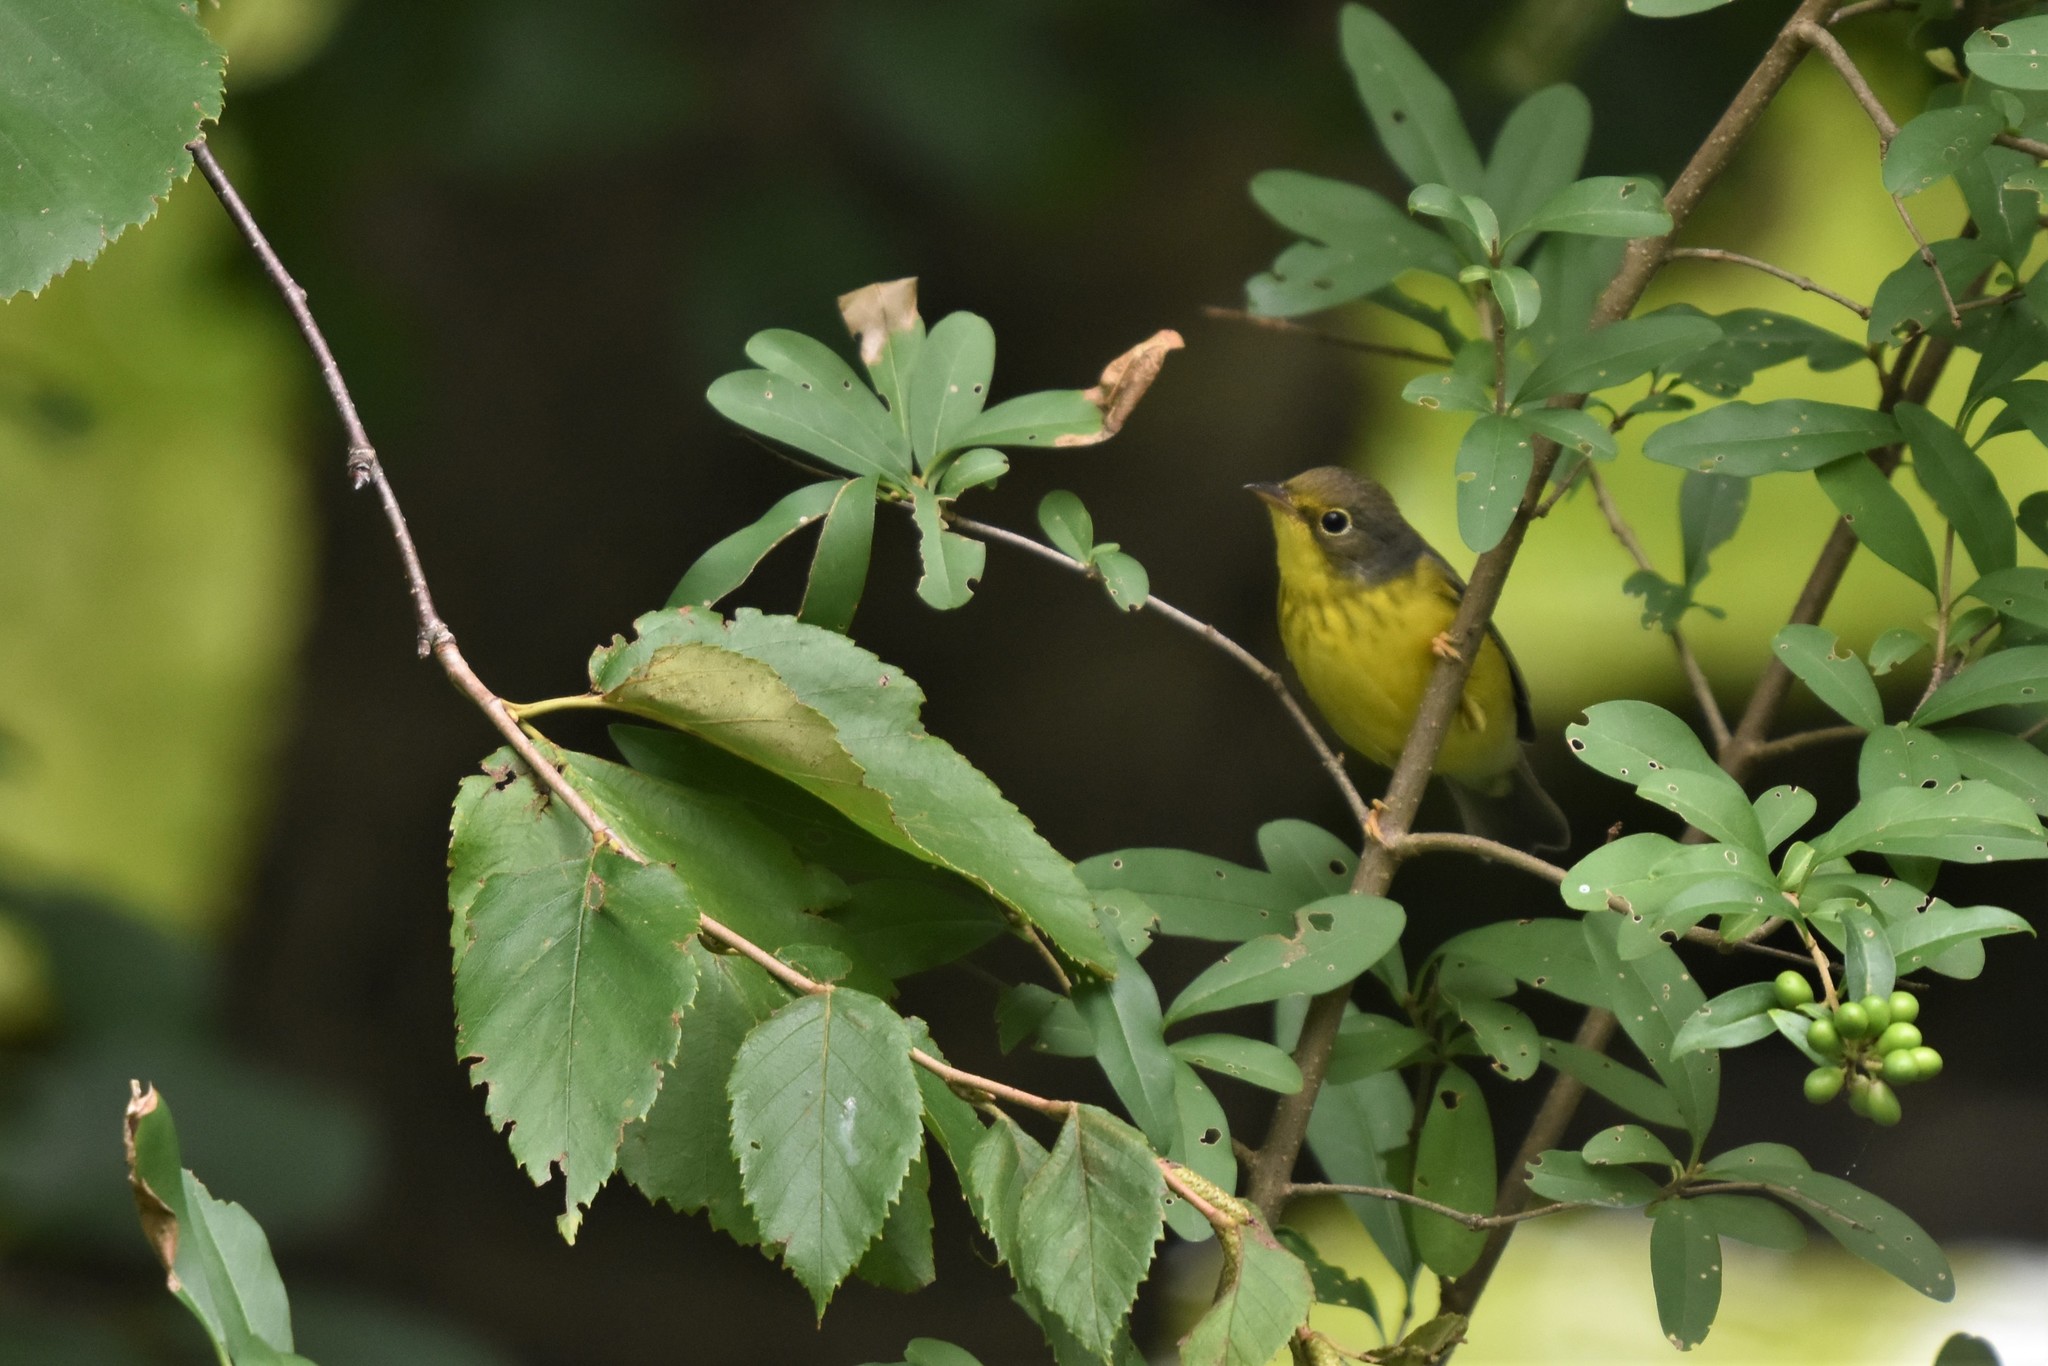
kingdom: Animalia
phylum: Chordata
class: Aves
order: Passeriformes
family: Parulidae
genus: Cardellina
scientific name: Cardellina canadensis
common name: Canada warbler
